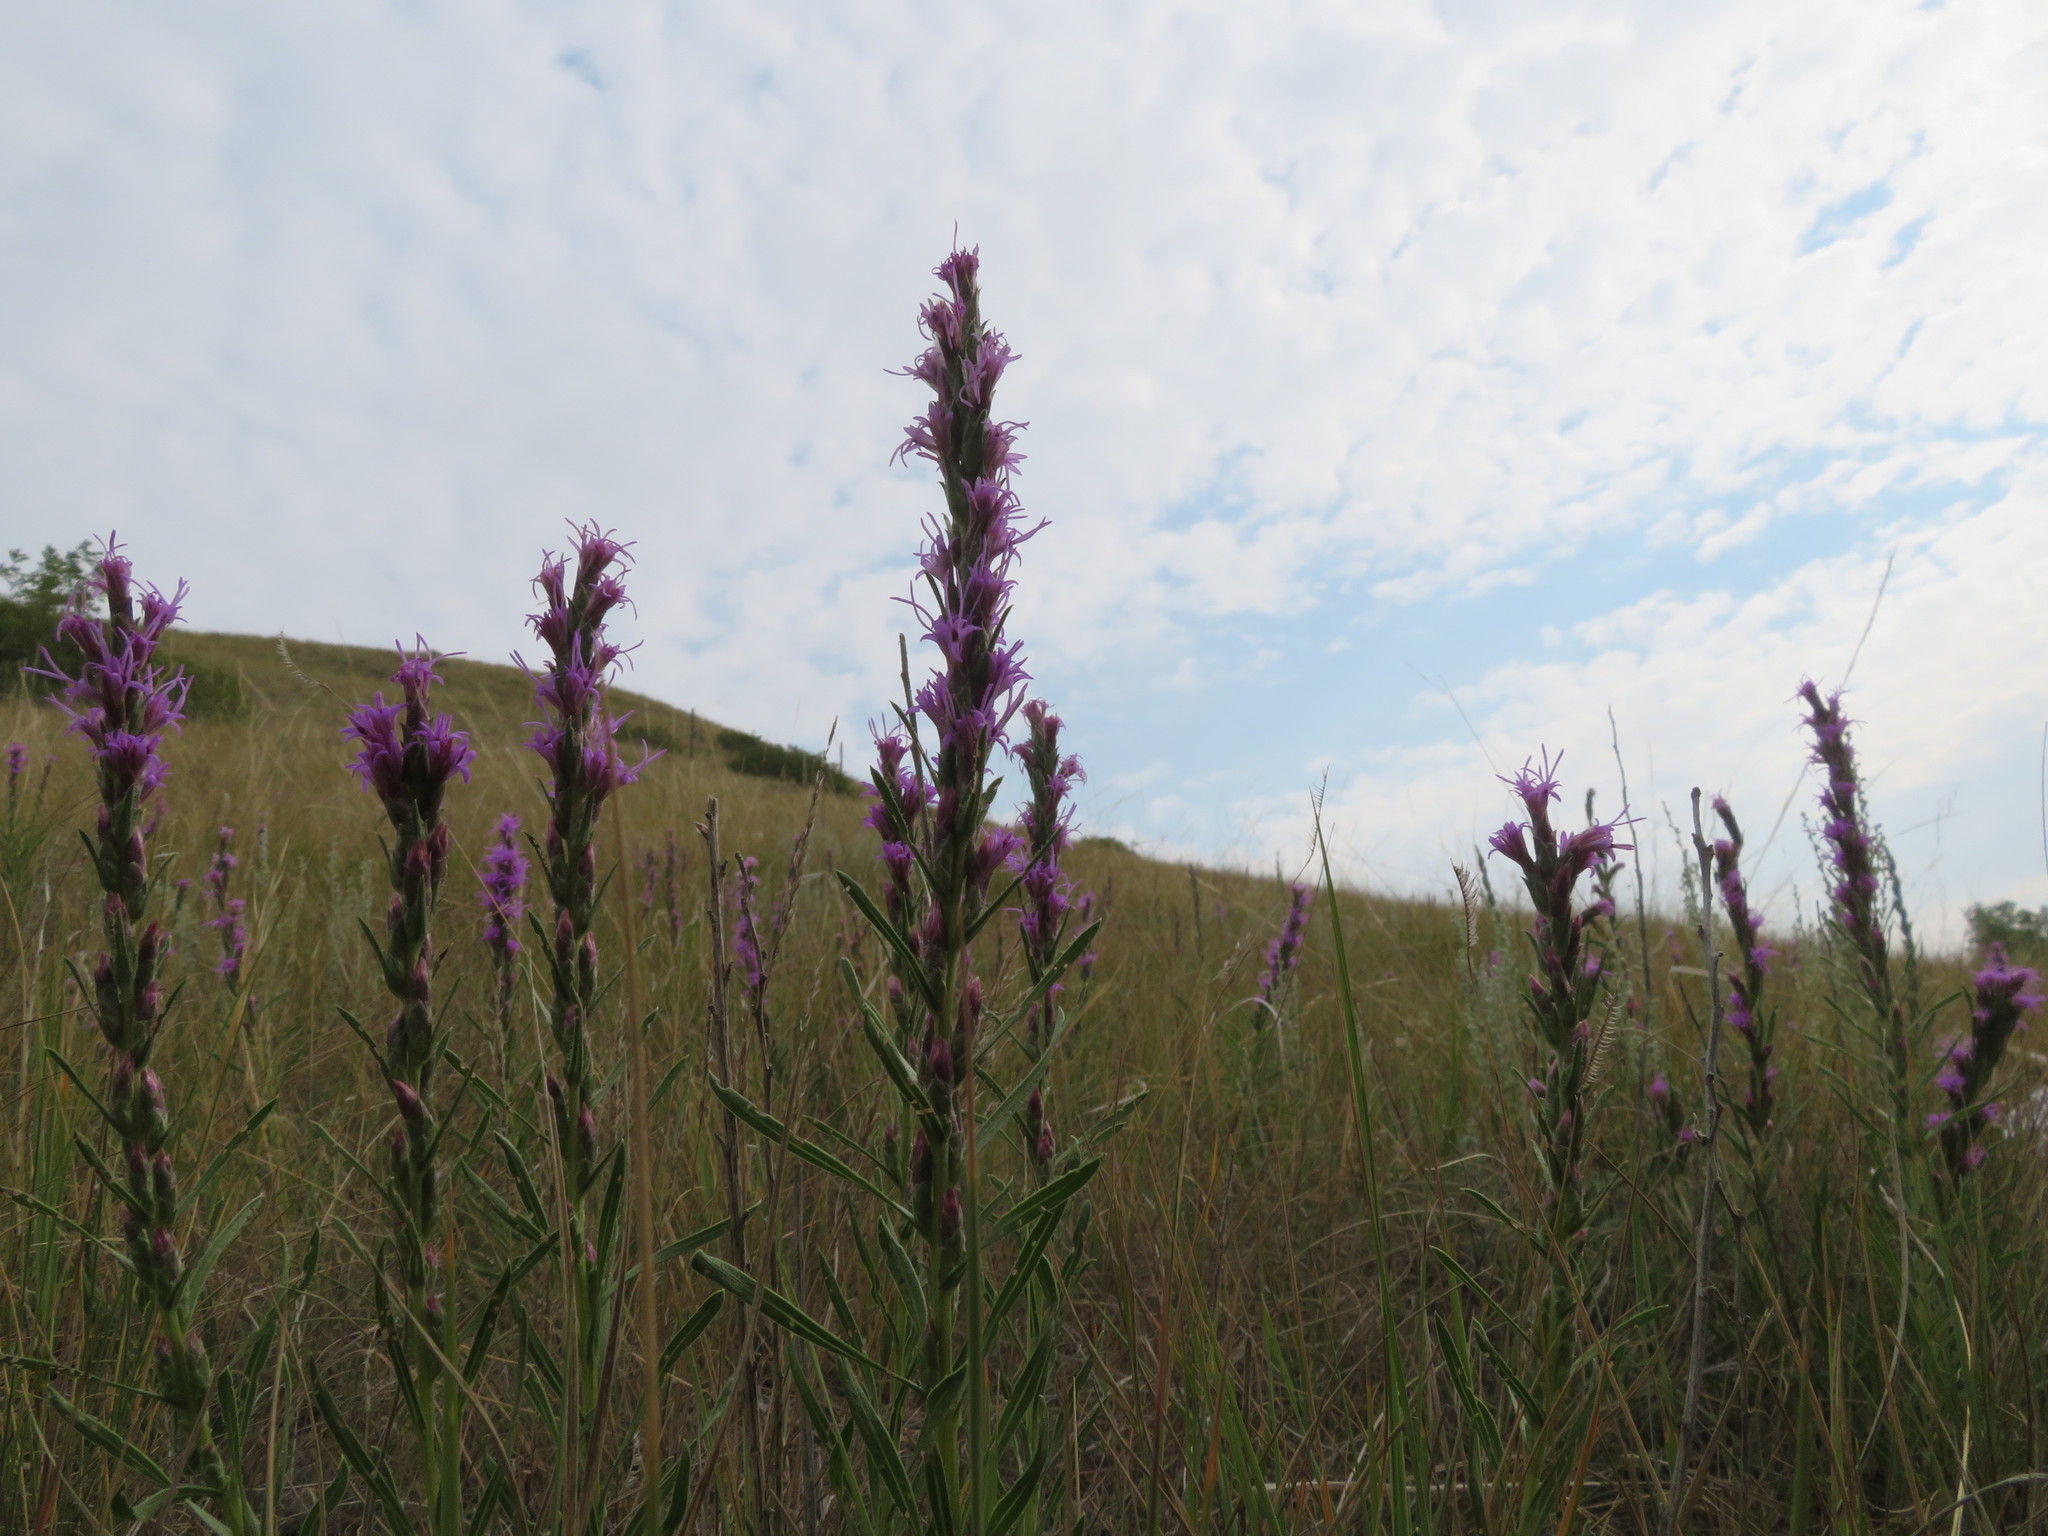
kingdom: Plantae
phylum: Tracheophyta
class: Magnoliopsida
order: Asterales
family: Asteraceae
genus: Liatris
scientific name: Liatris punctata
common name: Dotted gayfeather
